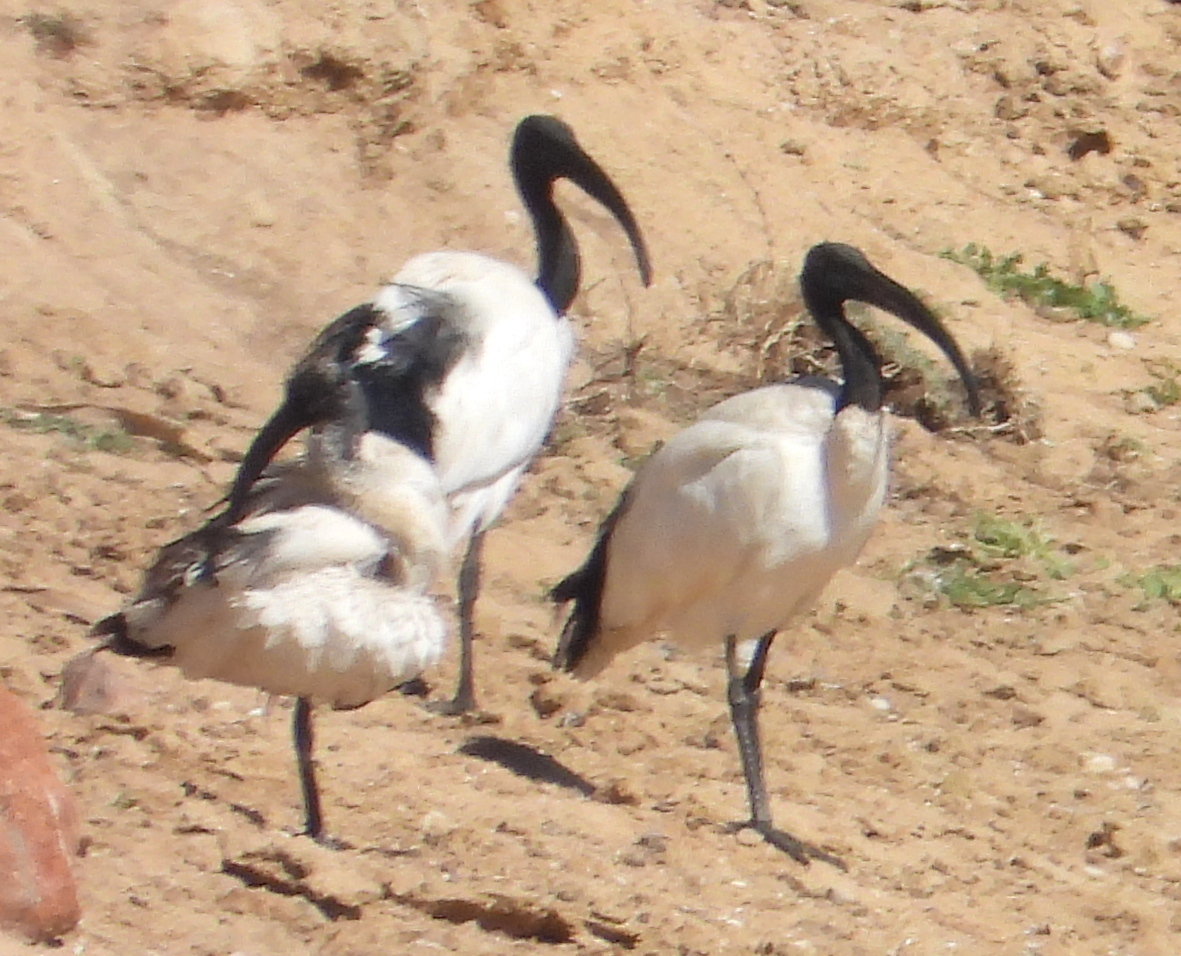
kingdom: Animalia
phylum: Chordata
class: Aves
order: Pelecaniformes
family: Threskiornithidae
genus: Threskiornis
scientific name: Threskiornis aethiopicus
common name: Sacred ibis
